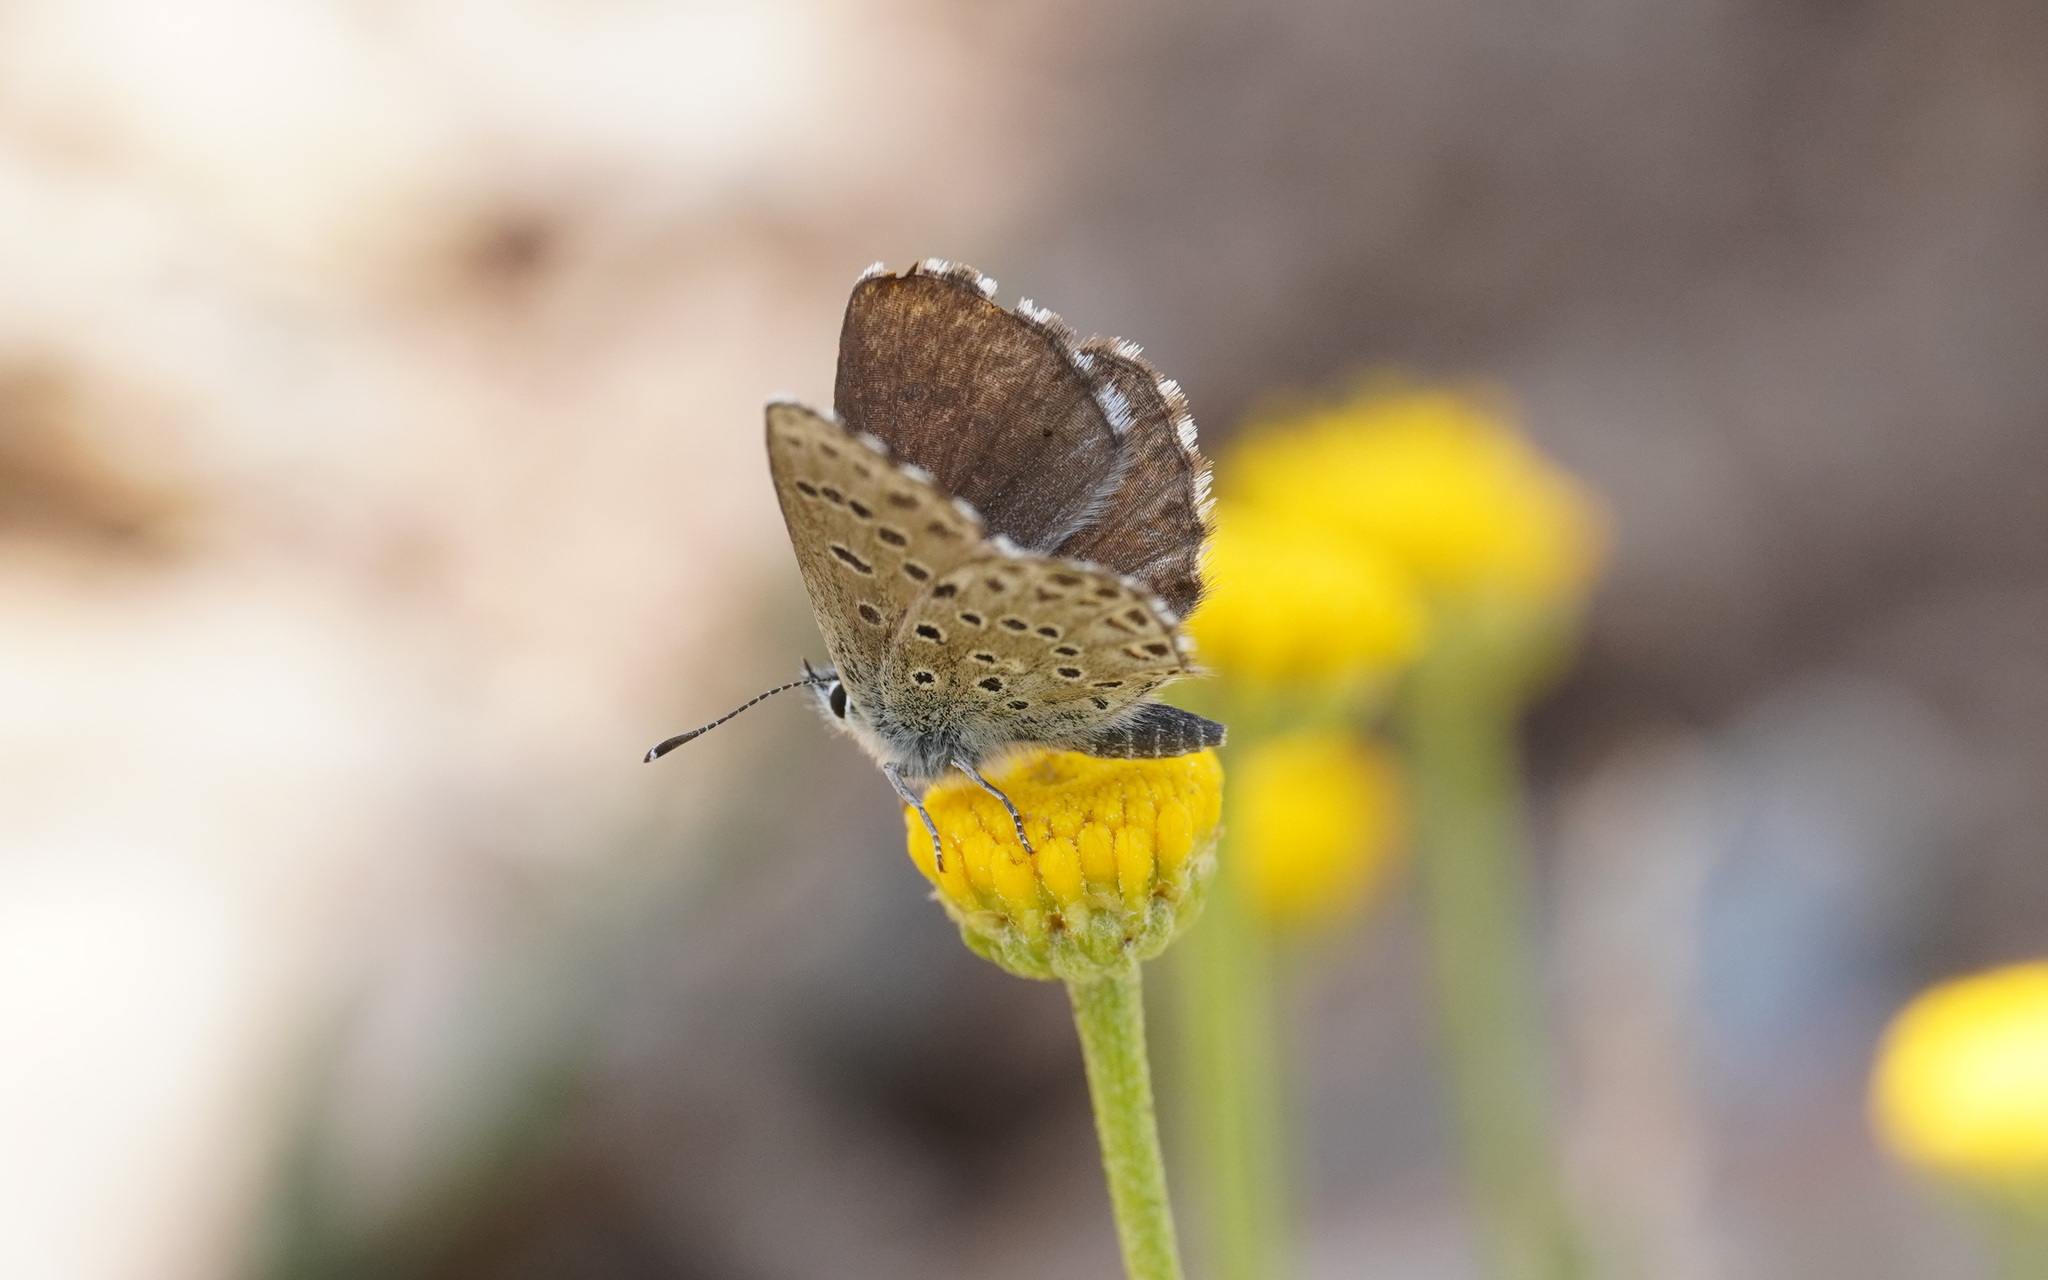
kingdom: Animalia
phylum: Arthropoda
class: Insecta
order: Lepidoptera
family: Lycaenidae
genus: Pseudophilotes
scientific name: Pseudophilotes barbagiae
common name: Sardinian blue
